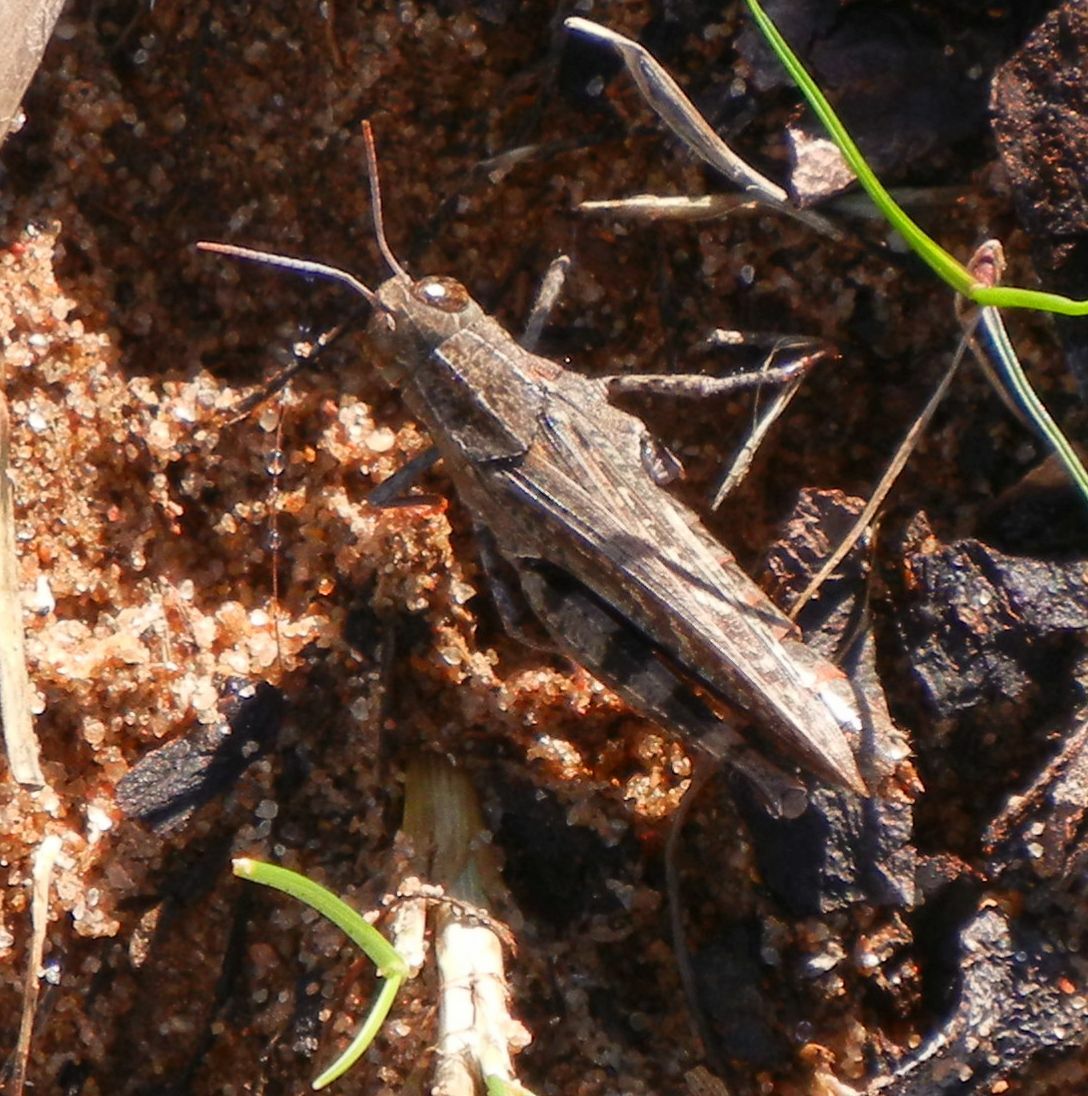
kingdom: Animalia
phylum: Arthropoda
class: Insecta
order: Orthoptera
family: Acrididae
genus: Calliptamus
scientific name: Calliptamus barbarus
